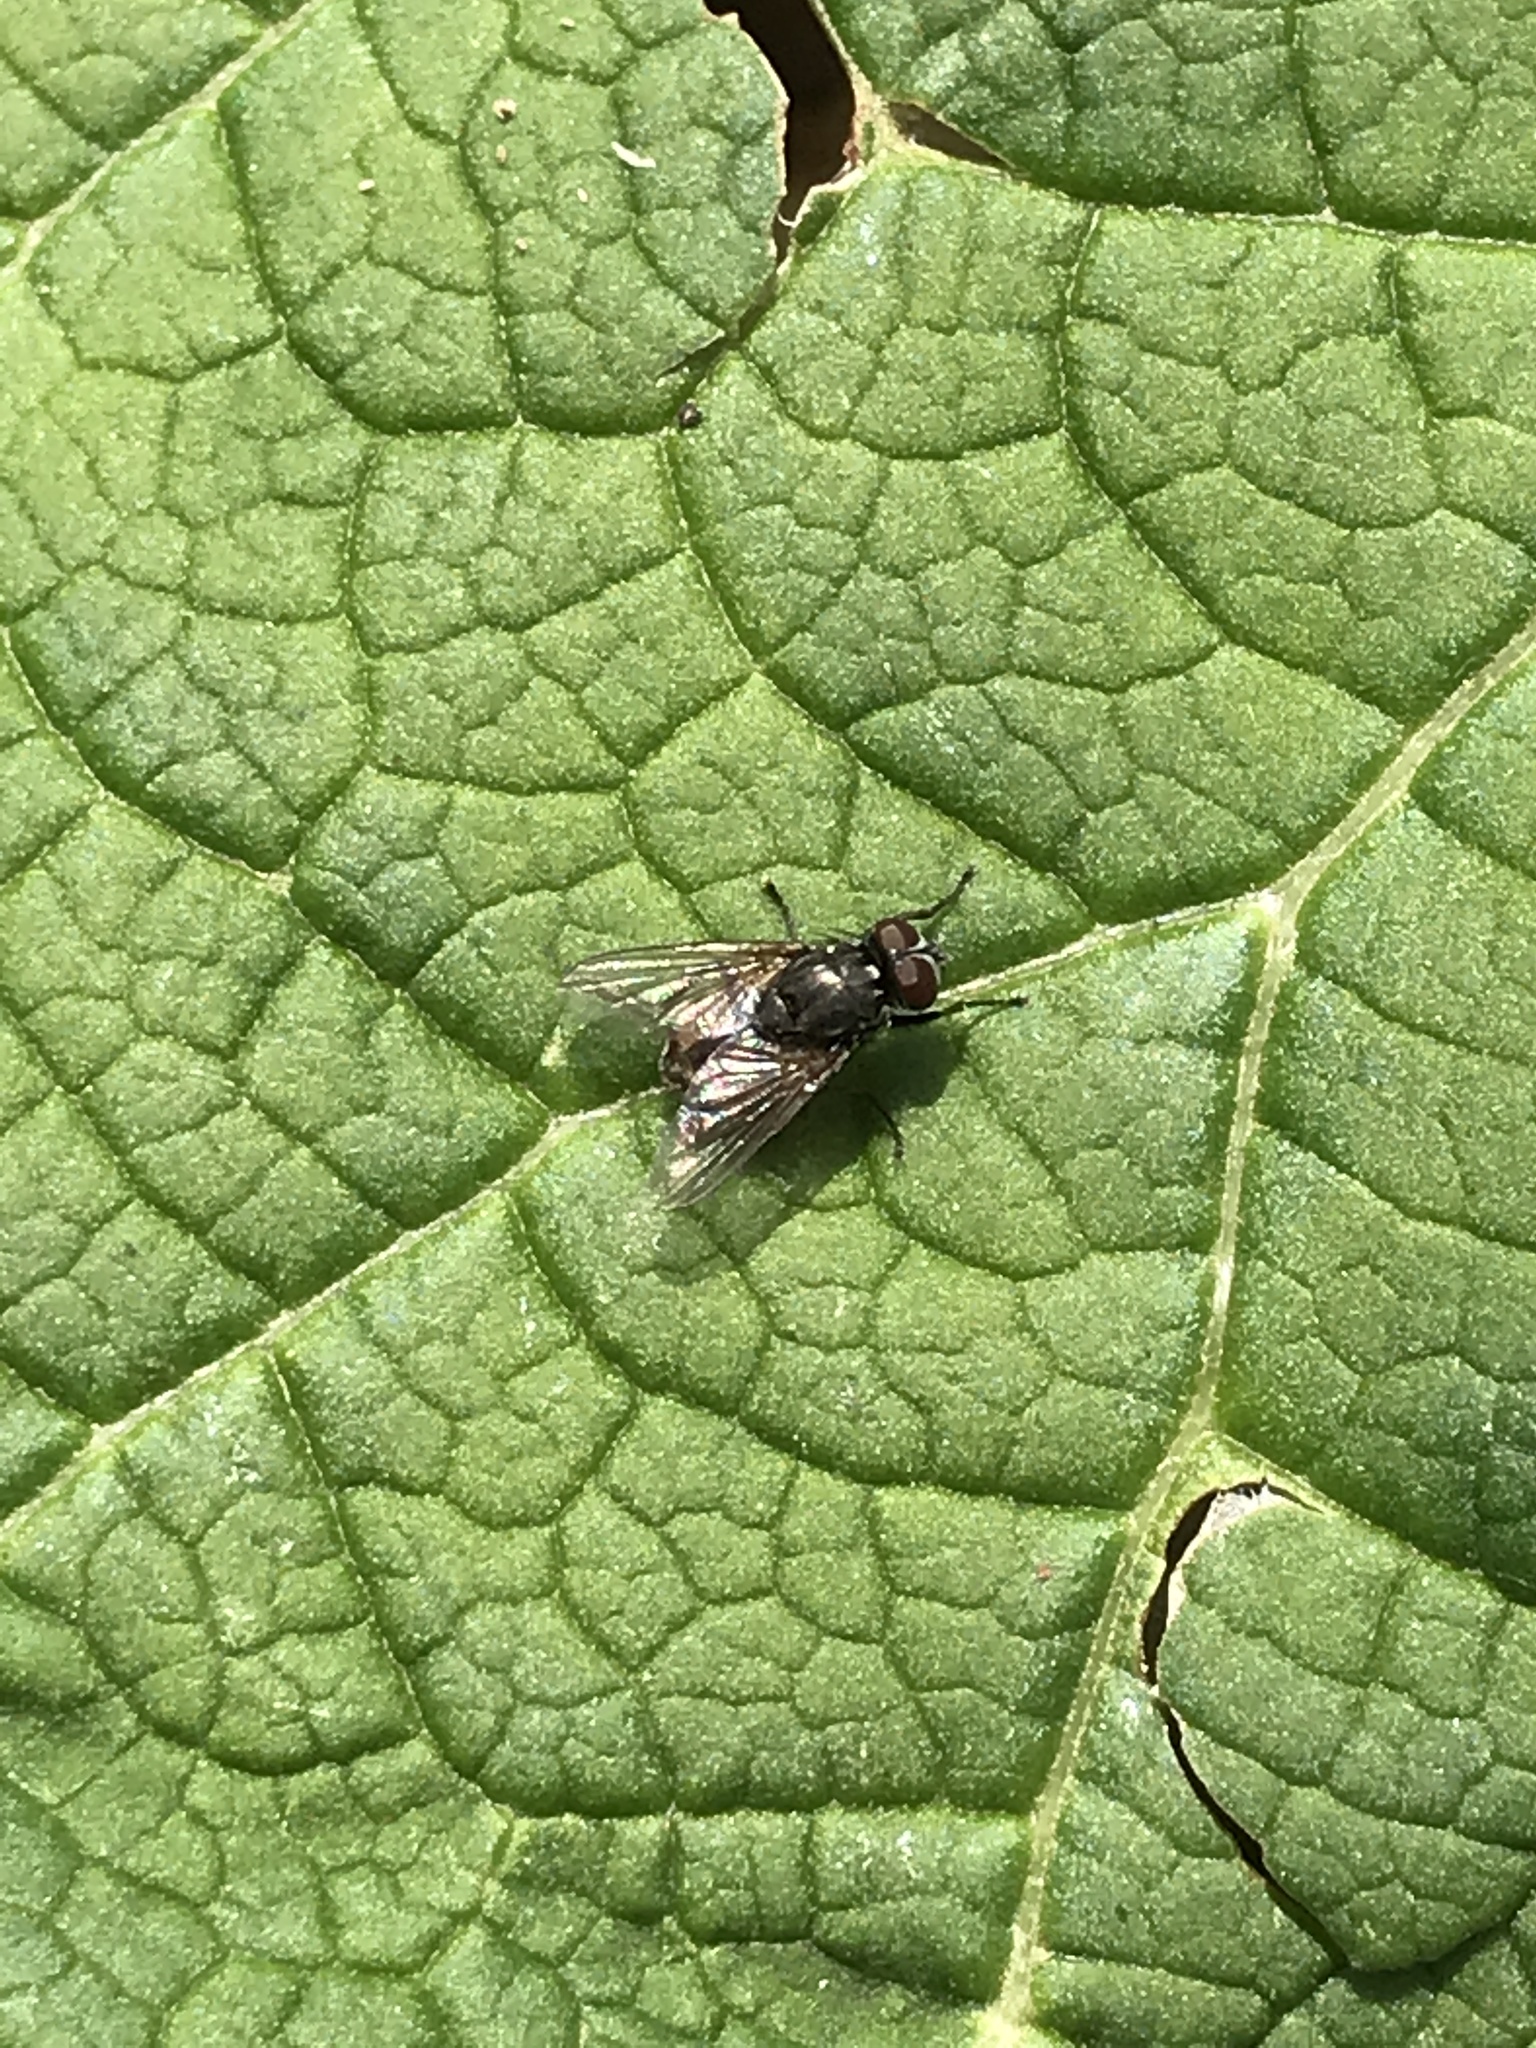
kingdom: Animalia
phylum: Arthropoda
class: Insecta
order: Diptera
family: Muscidae
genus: Musca
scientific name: Musca autumnalis
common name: Face fly
